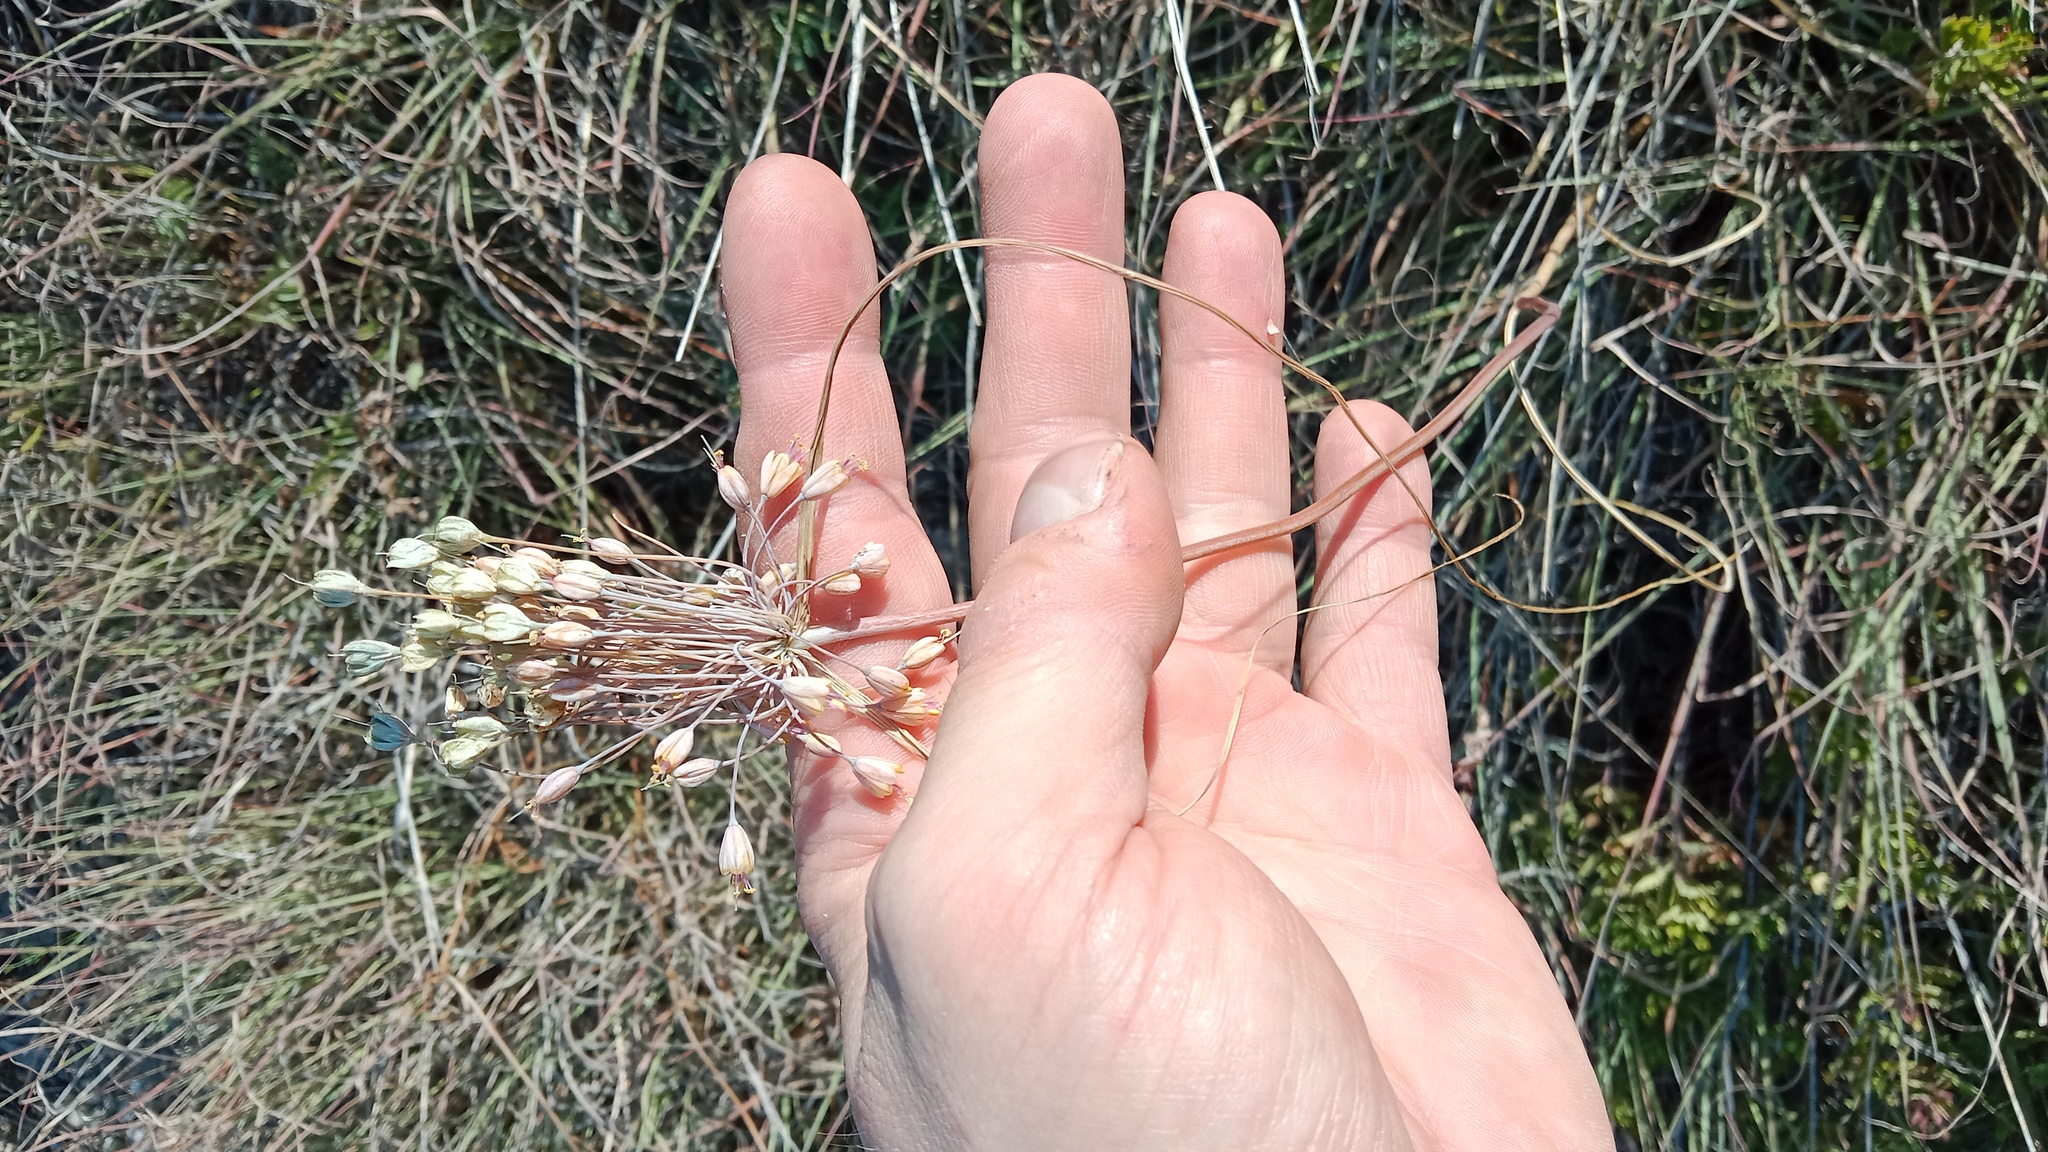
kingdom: Plantae
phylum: Tracheophyta
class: Liliopsida
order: Asparagales
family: Amaryllidaceae
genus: Allium
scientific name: Allium flavum
